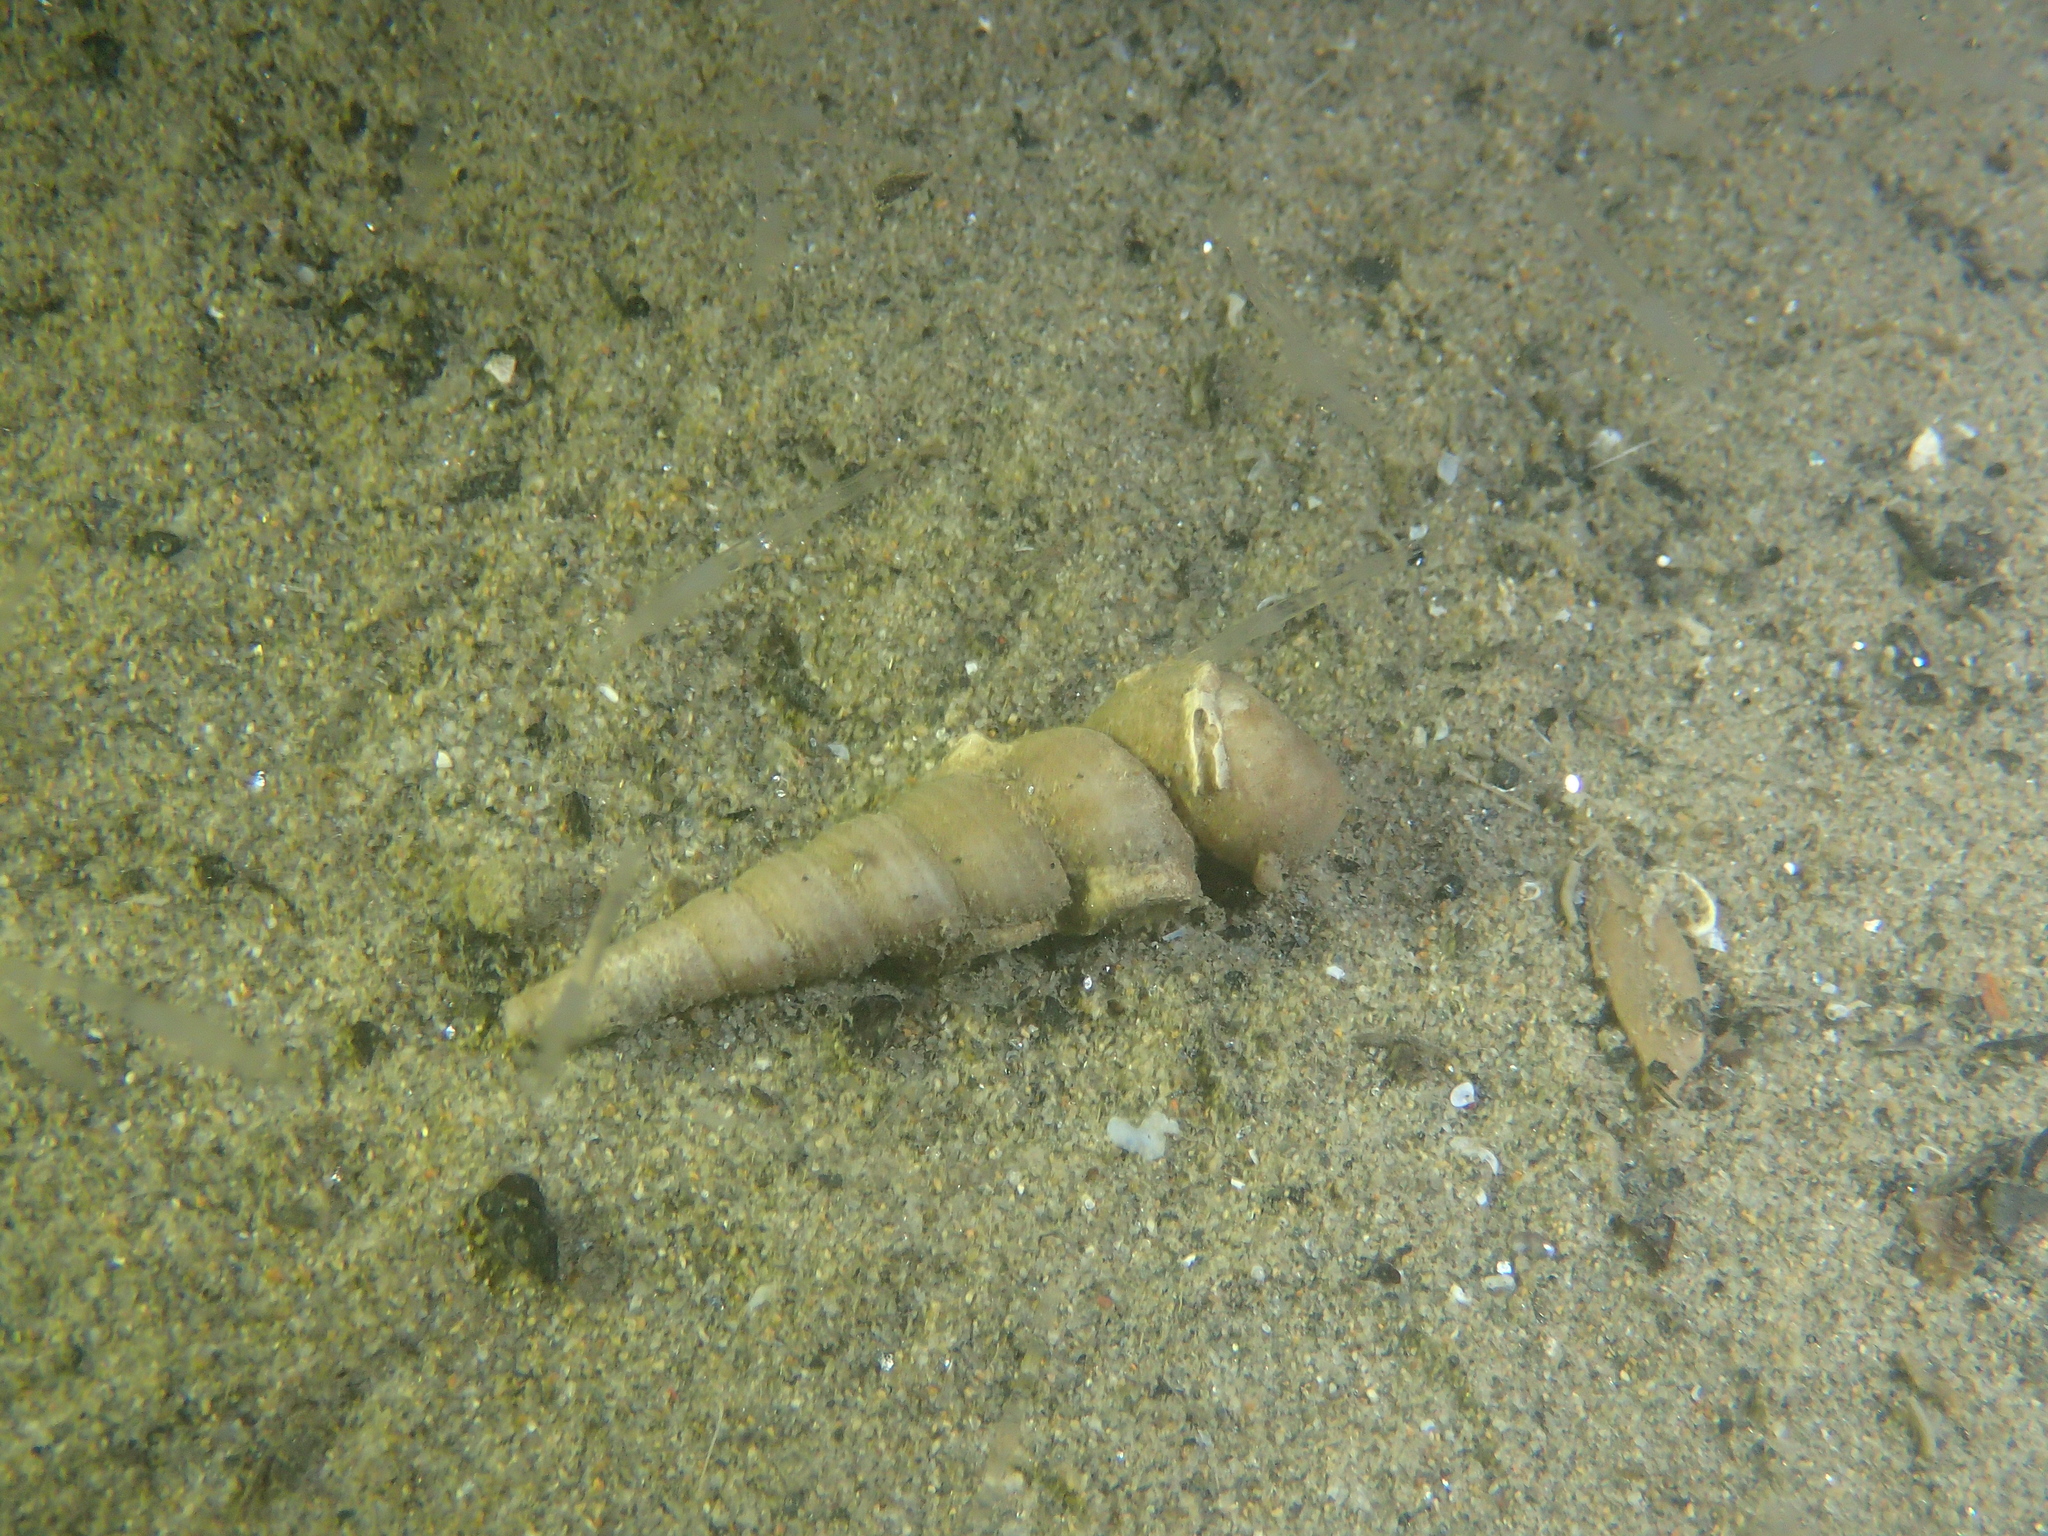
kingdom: Animalia
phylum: Mollusca
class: Gastropoda
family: Turritellidae
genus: Turritellinella
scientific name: Turritellinella tricarinata
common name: Auger shell
